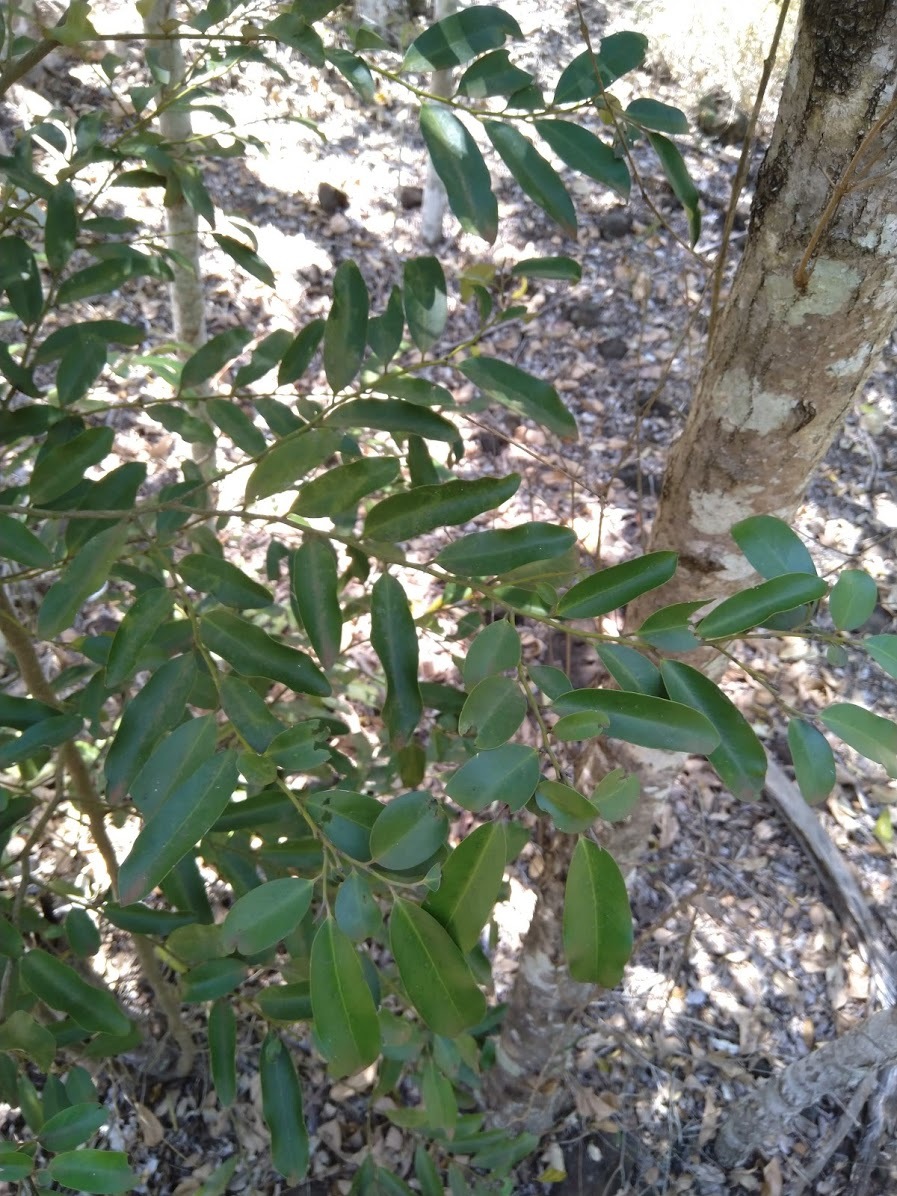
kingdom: Plantae
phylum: Tracheophyta
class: Magnoliopsida
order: Ericales
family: Ebenaceae
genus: Diospyros
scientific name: Diospyros australis
